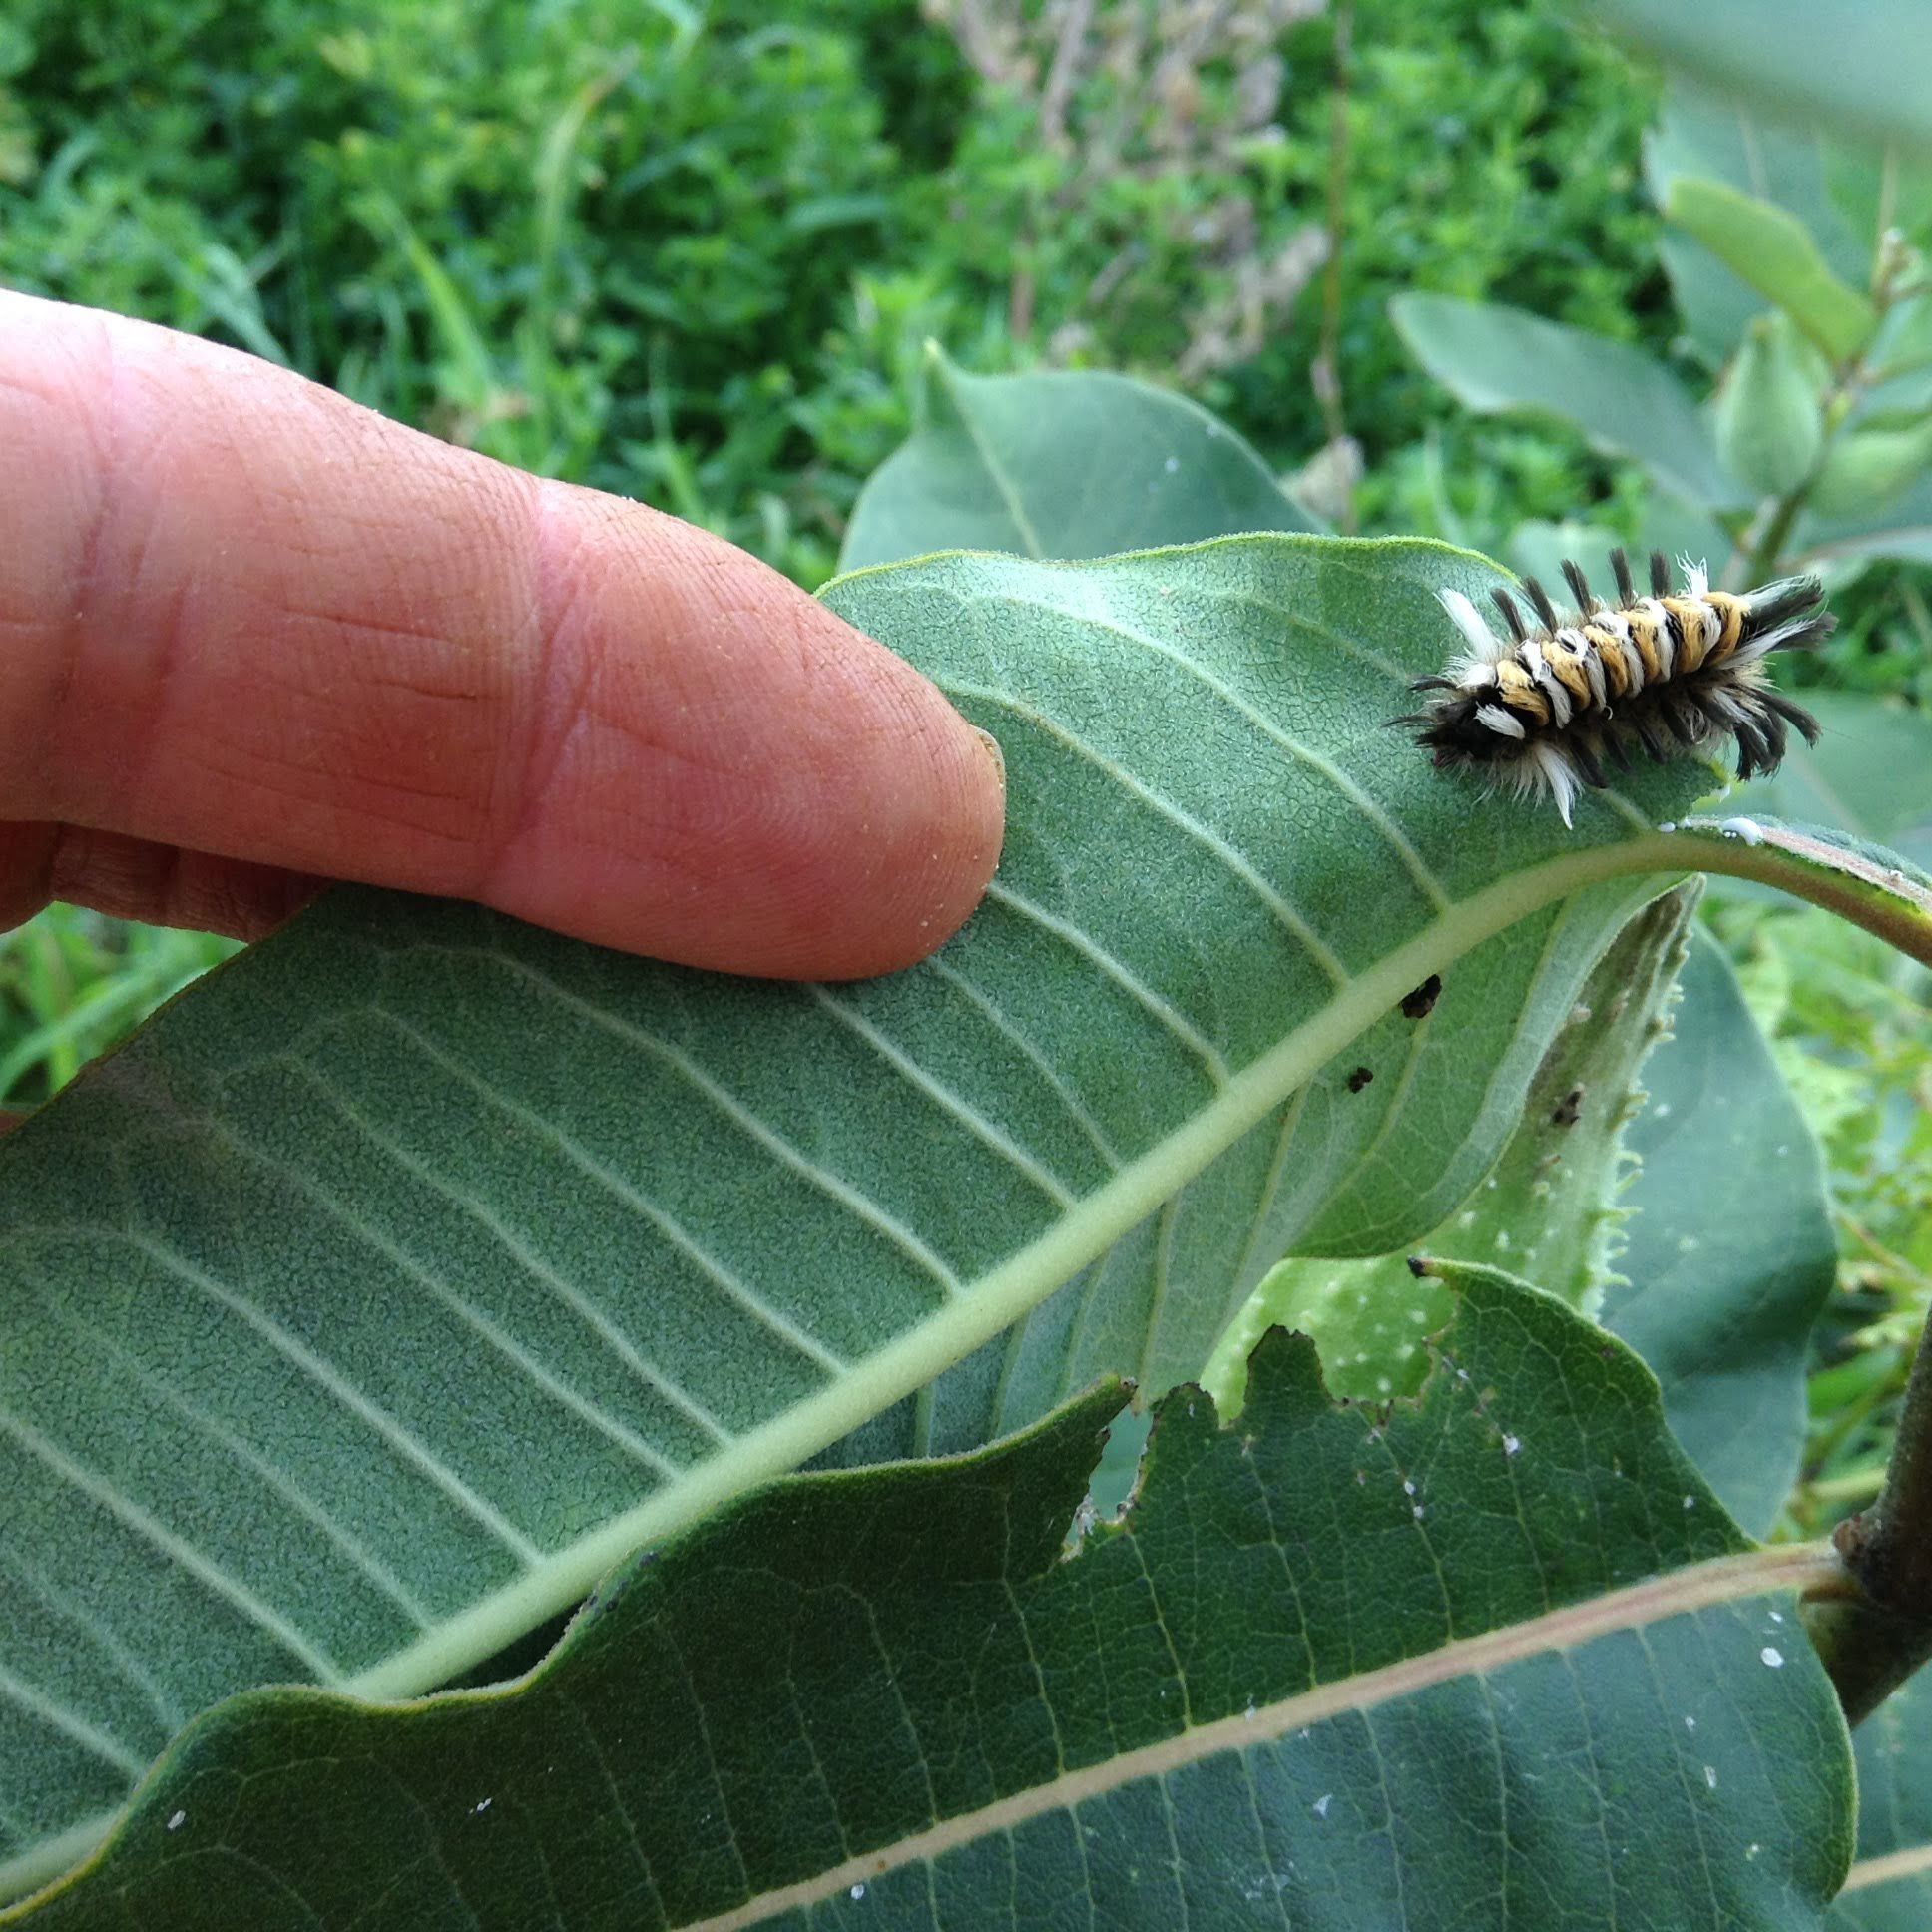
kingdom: Animalia
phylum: Arthropoda
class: Insecta
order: Lepidoptera
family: Erebidae
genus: Euchaetes
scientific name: Euchaetes egle
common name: Milkweed tussock moth
